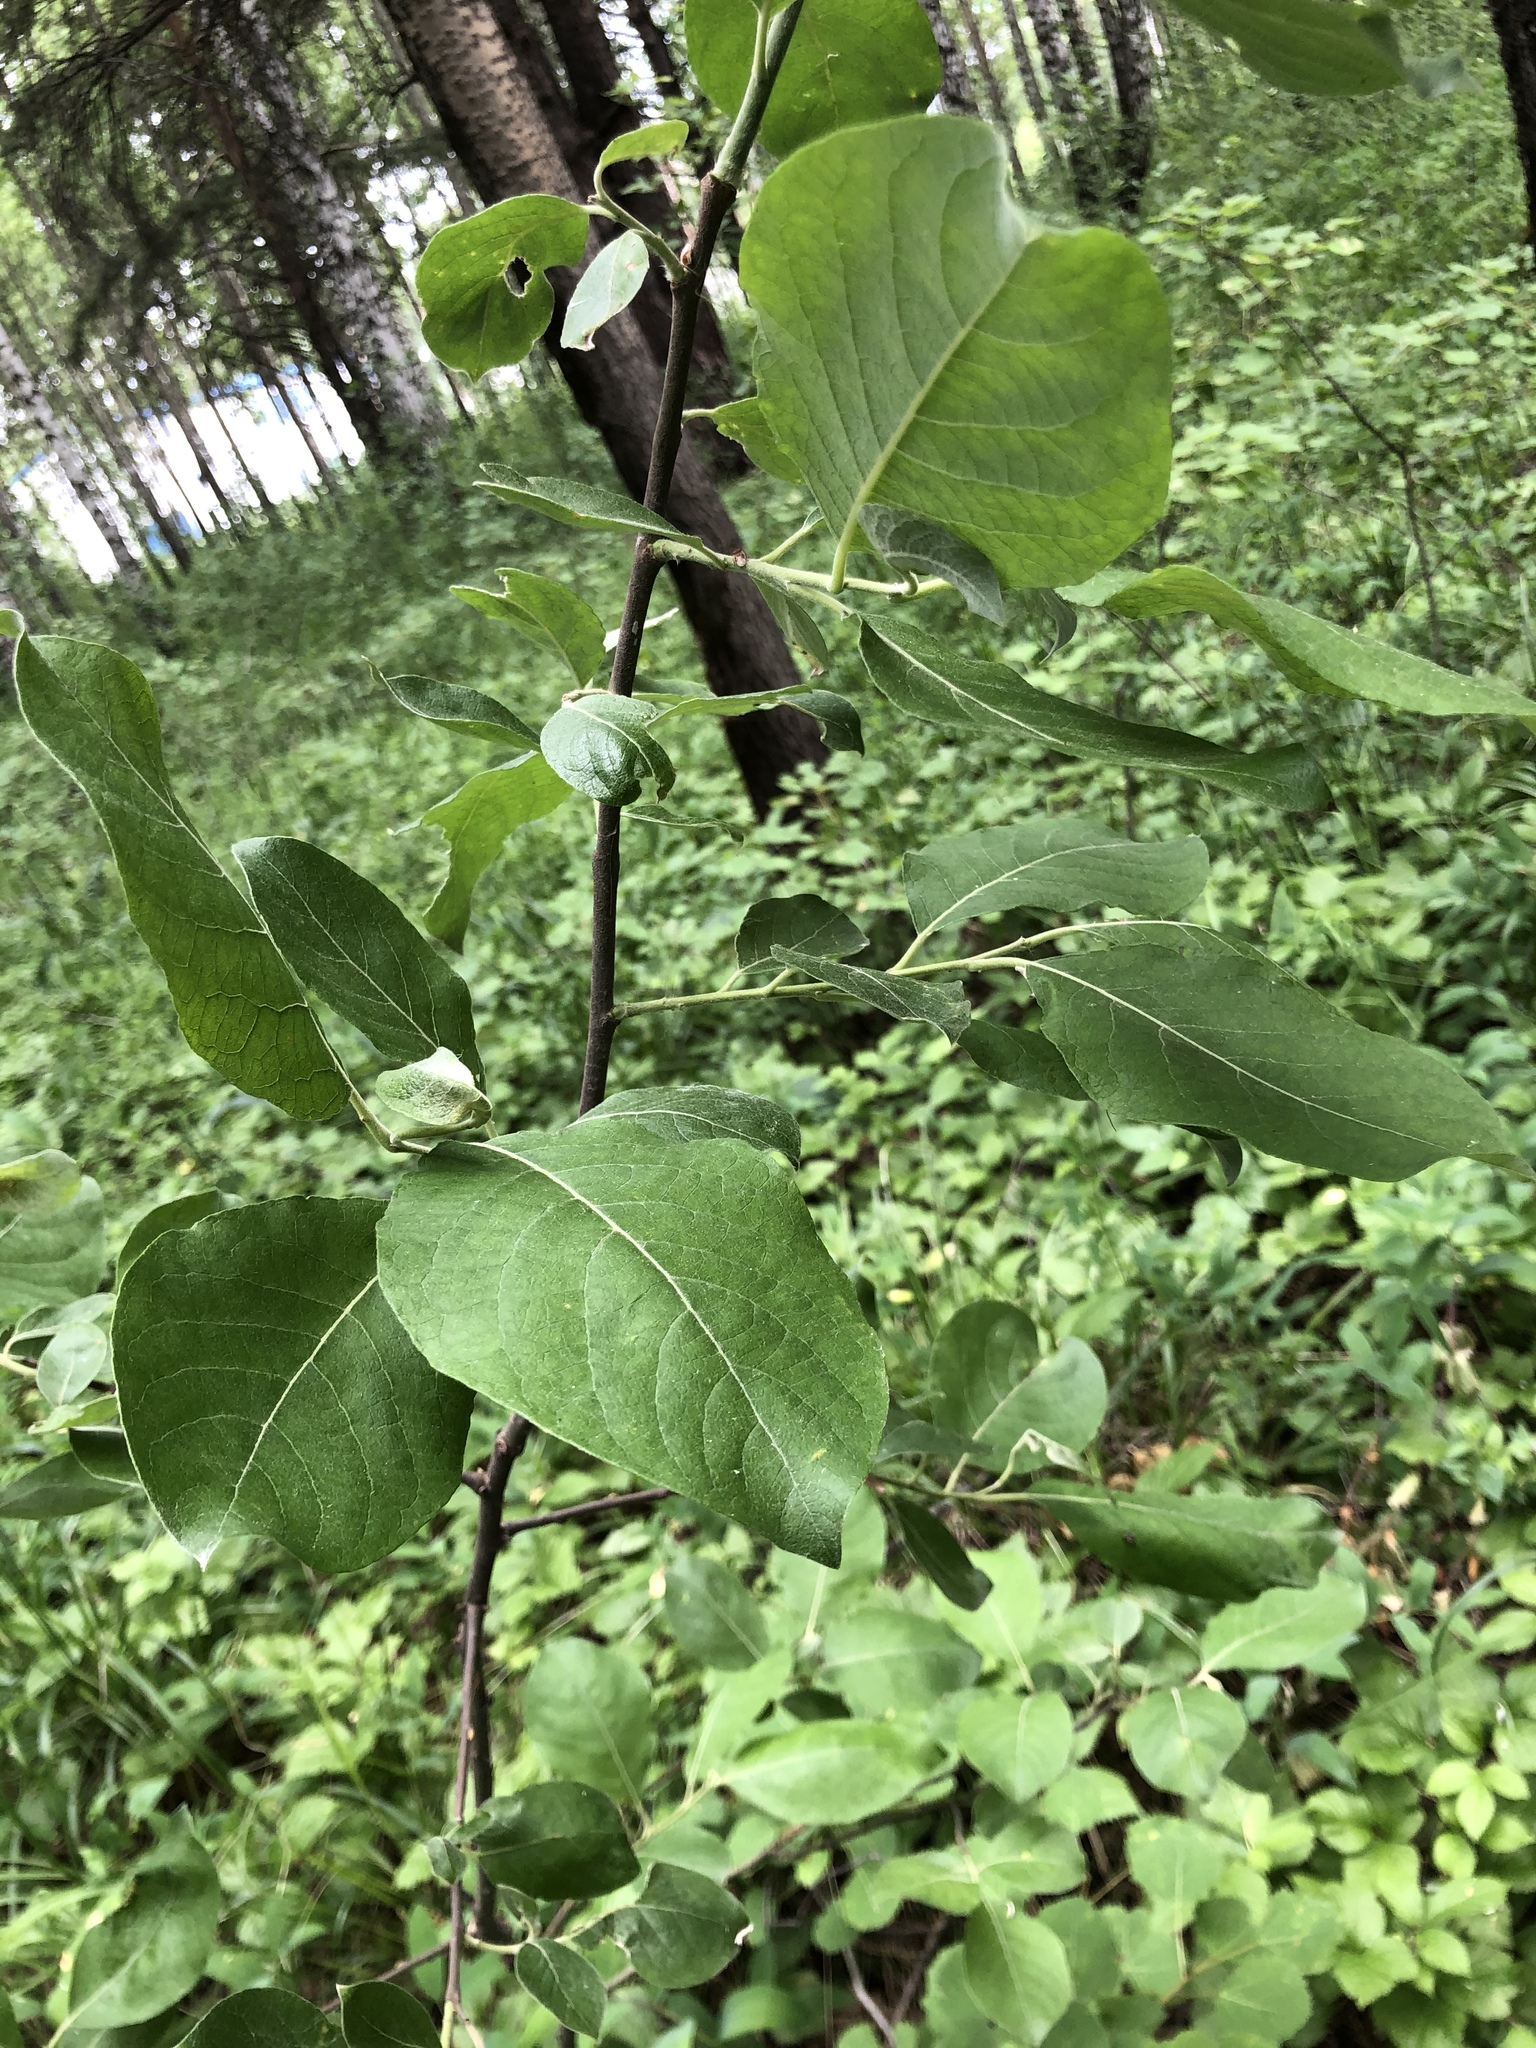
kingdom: Plantae
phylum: Tracheophyta
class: Magnoliopsida
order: Malpighiales
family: Salicaceae
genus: Salix
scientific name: Salix caprea
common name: Goat willow
